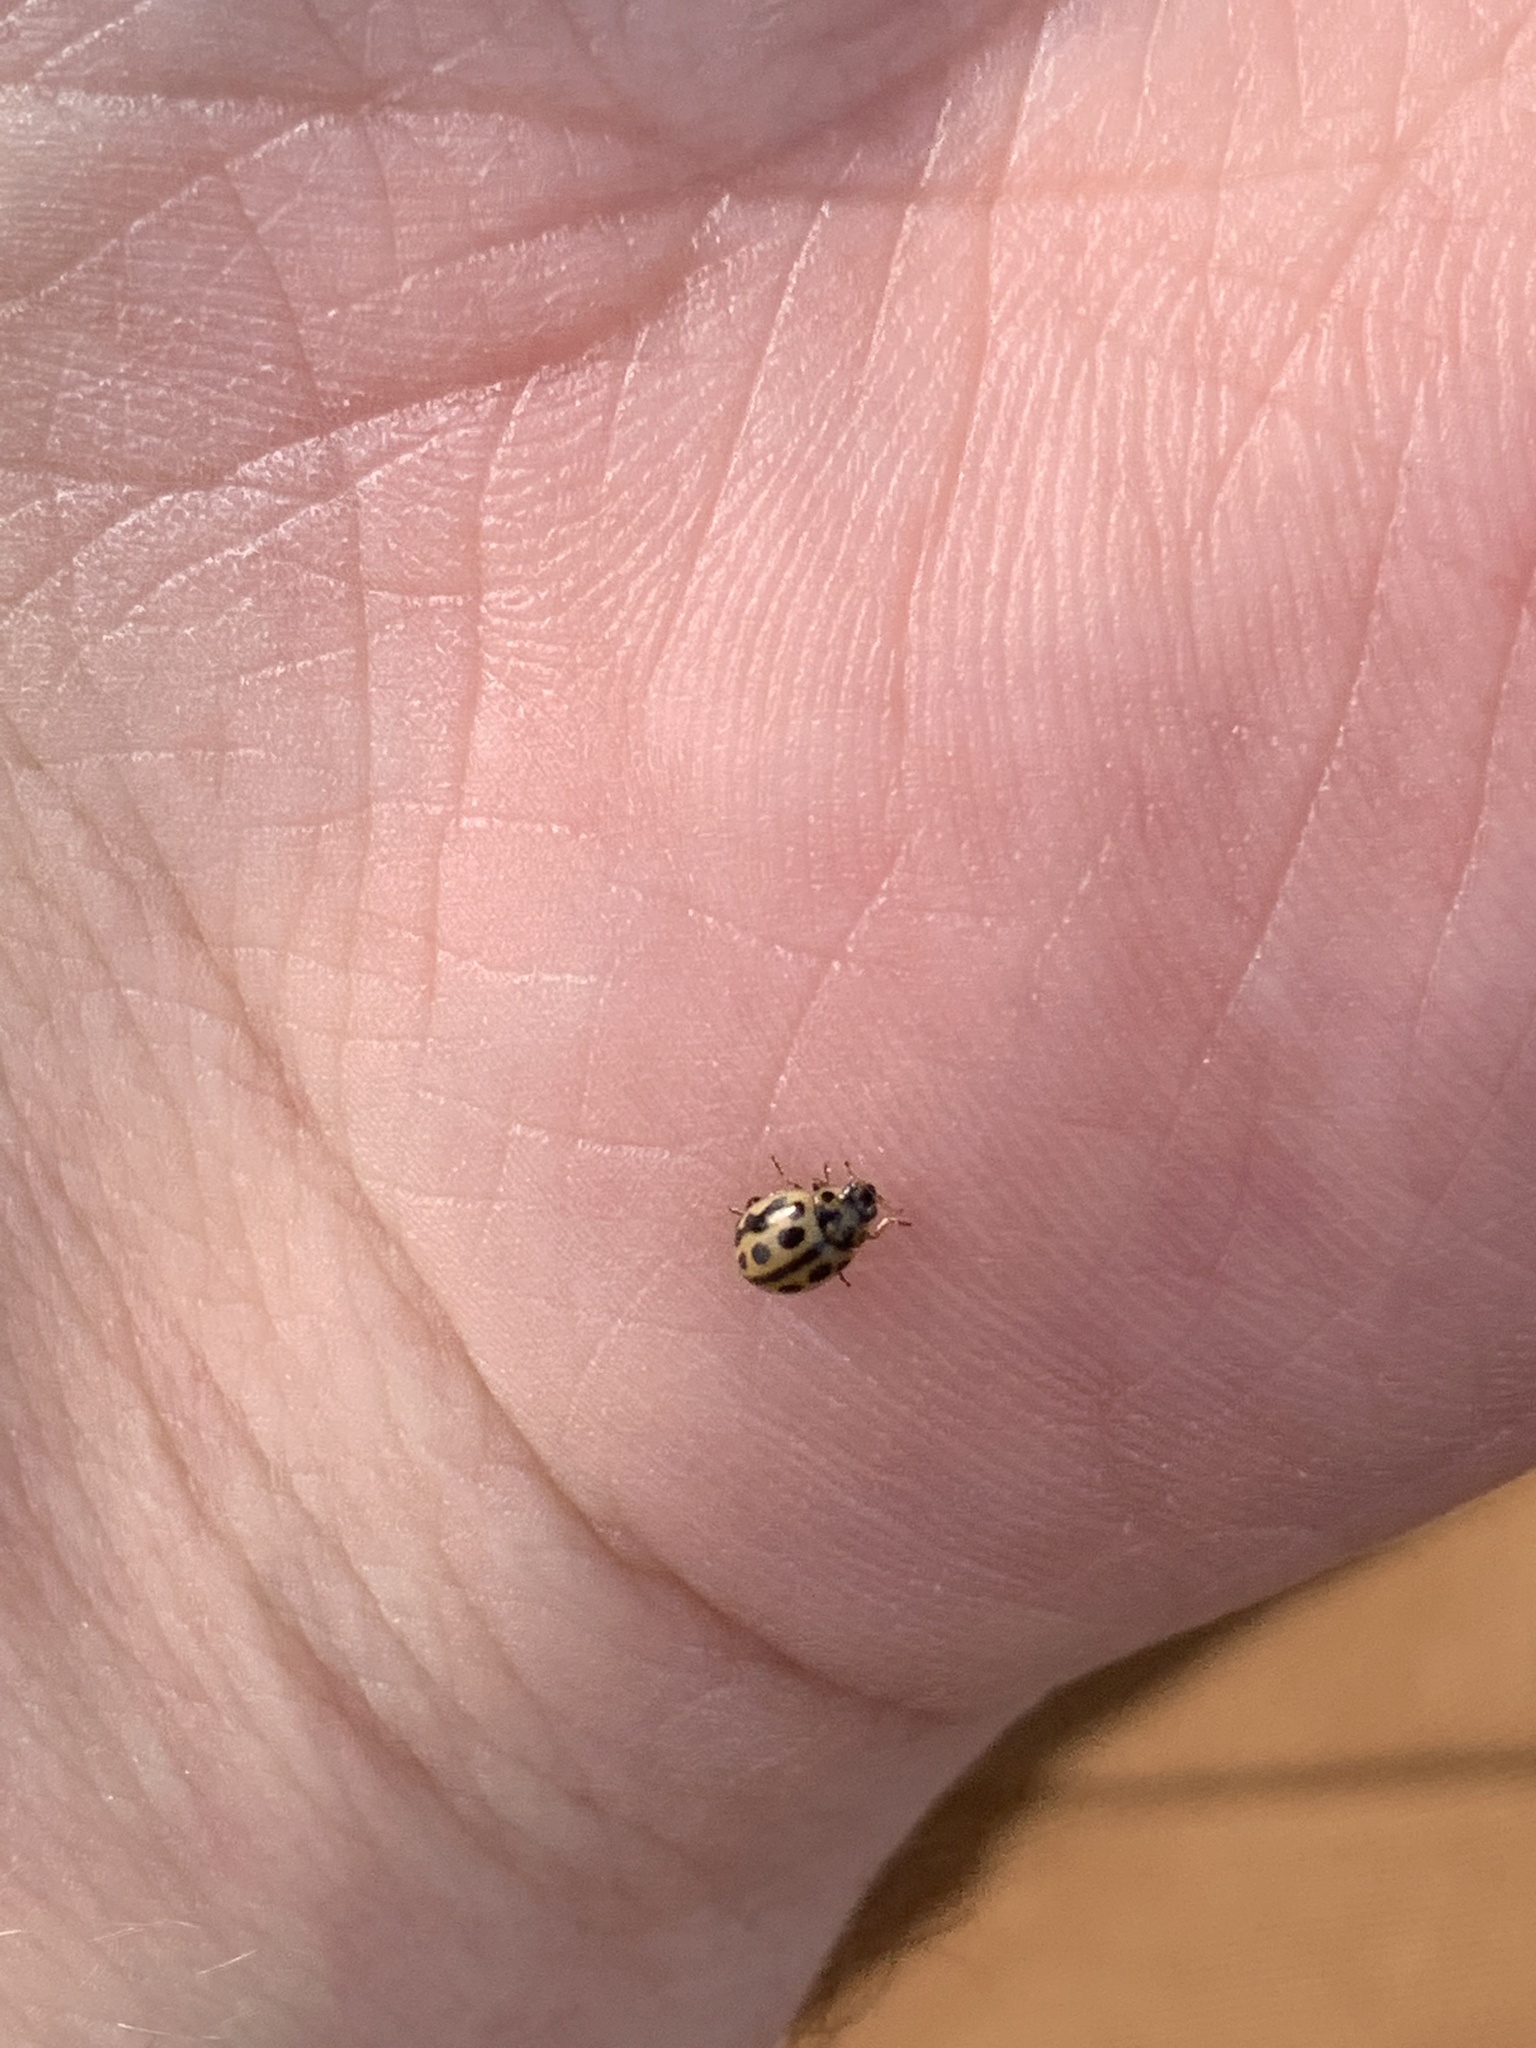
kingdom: Animalia
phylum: Arthropoda
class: Insecta
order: Coleoptera
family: Coccinellidae
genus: Tytthaspis
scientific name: Tytthaspis sedecimpunctata
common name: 16-spot ladybird
